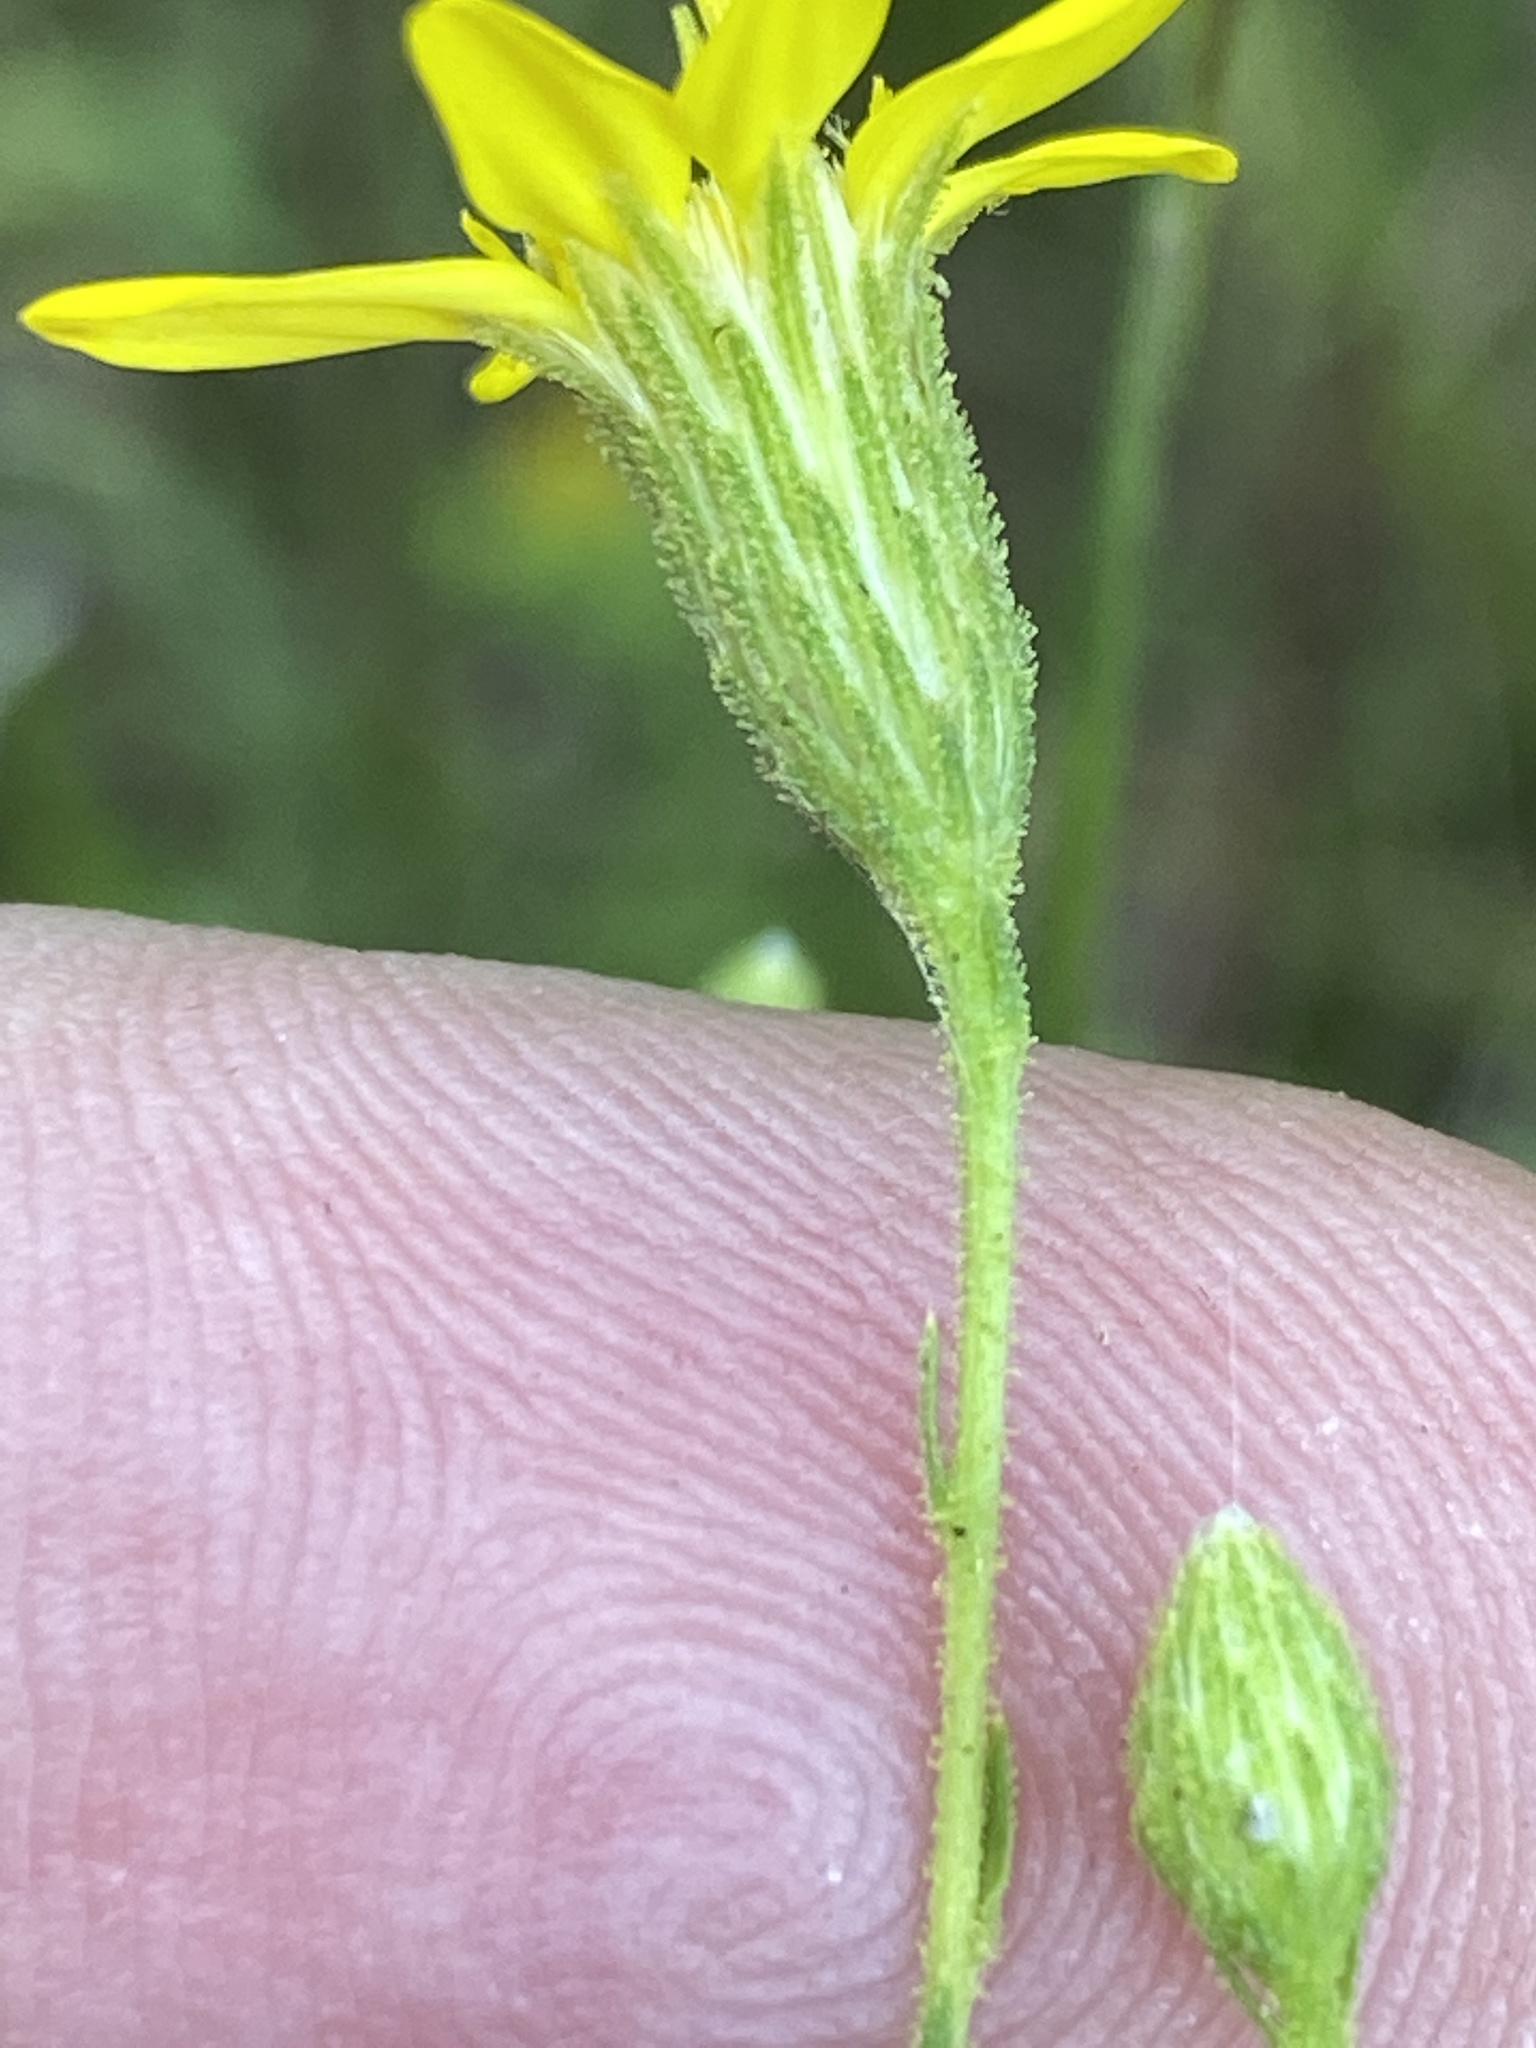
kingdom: Plantae
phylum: Tracheophyta
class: Magnoliopsida
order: Asterales
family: Asteraceae
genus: Pityopsis
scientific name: Pityopsis aspera
